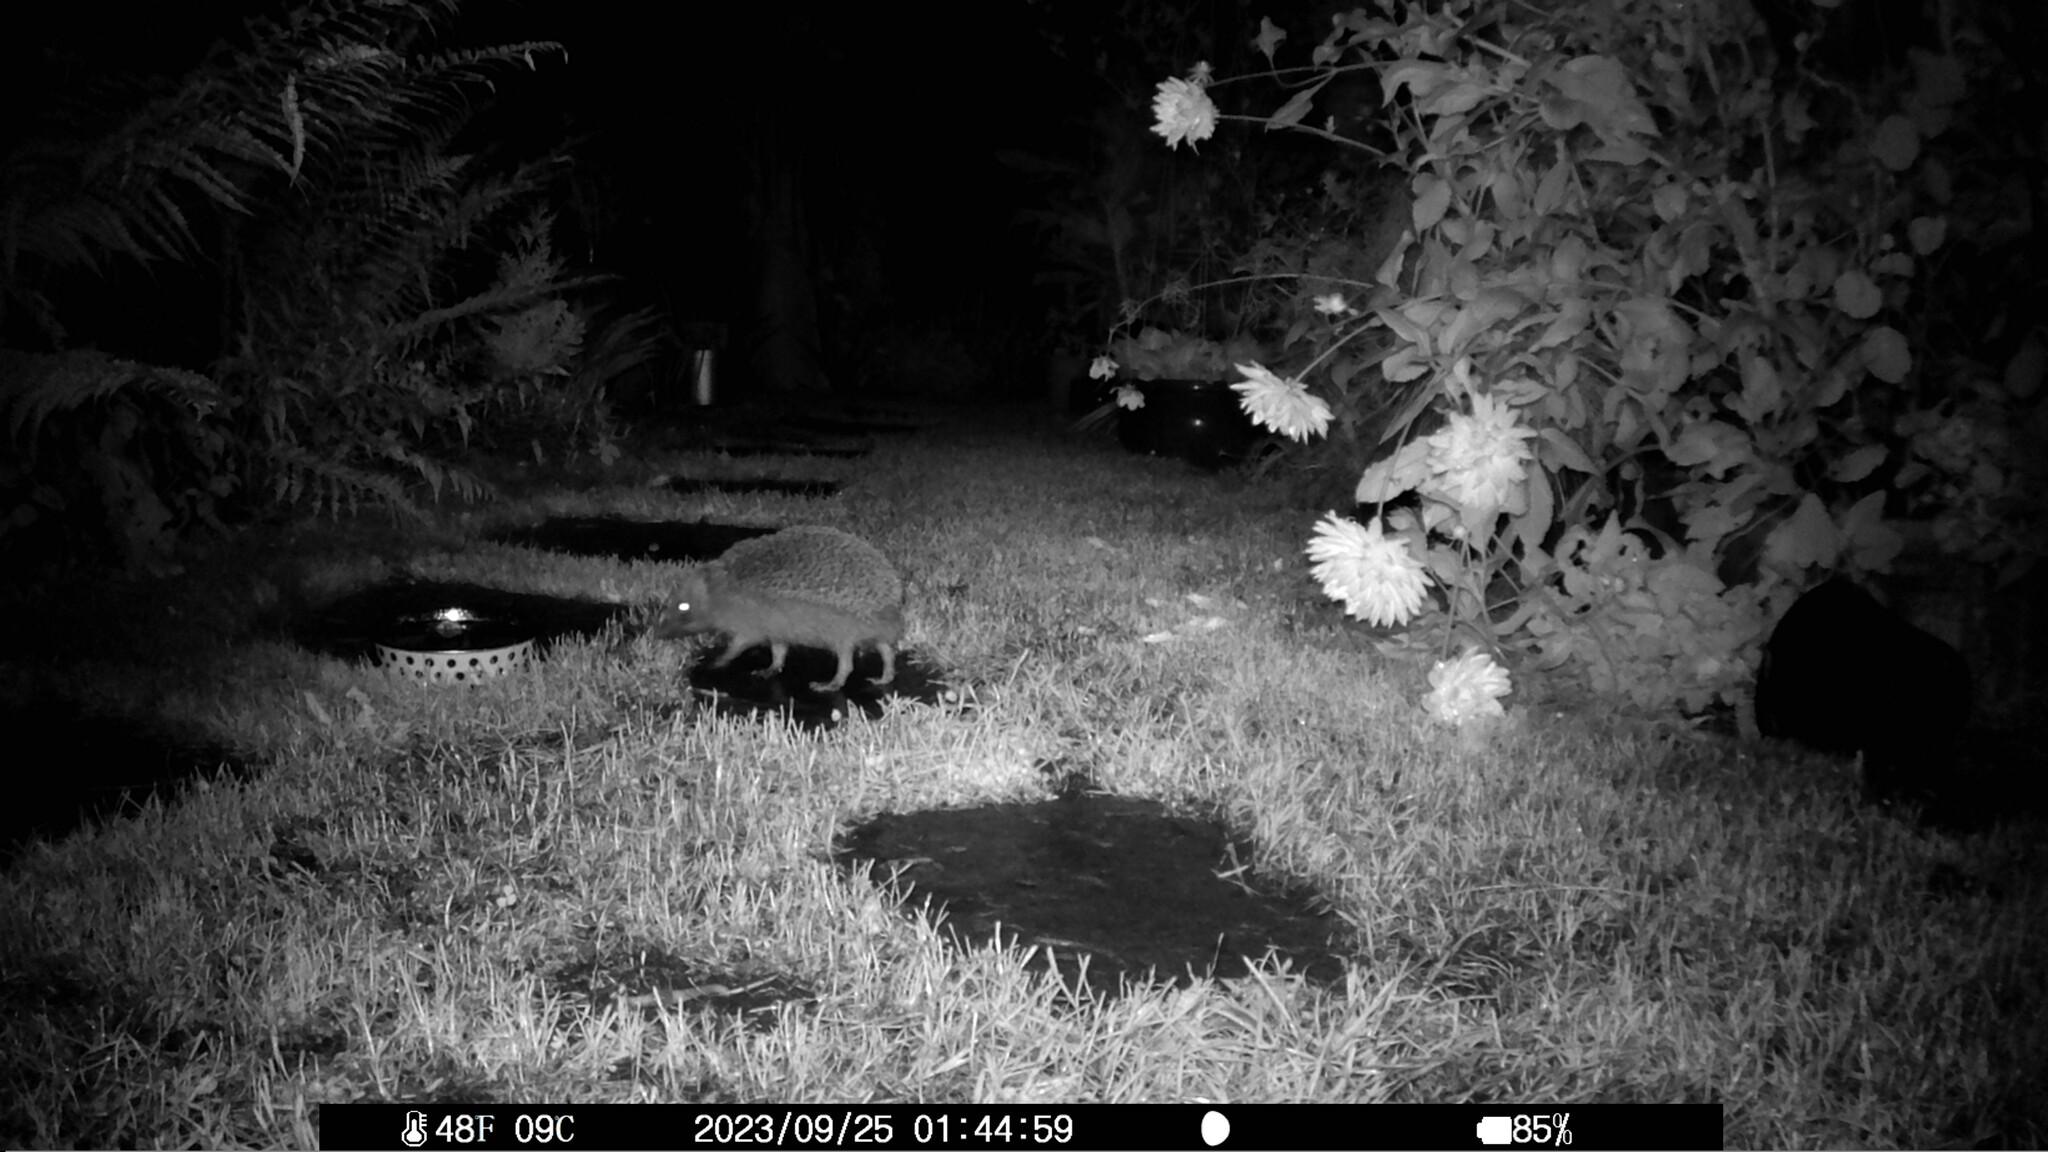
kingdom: Animalia
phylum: Chordata
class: Mammalia
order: Erinaceomorpha
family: Erinaceidae
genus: Erinaceus
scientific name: Erinaceus europaeus
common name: West european hedgehog
